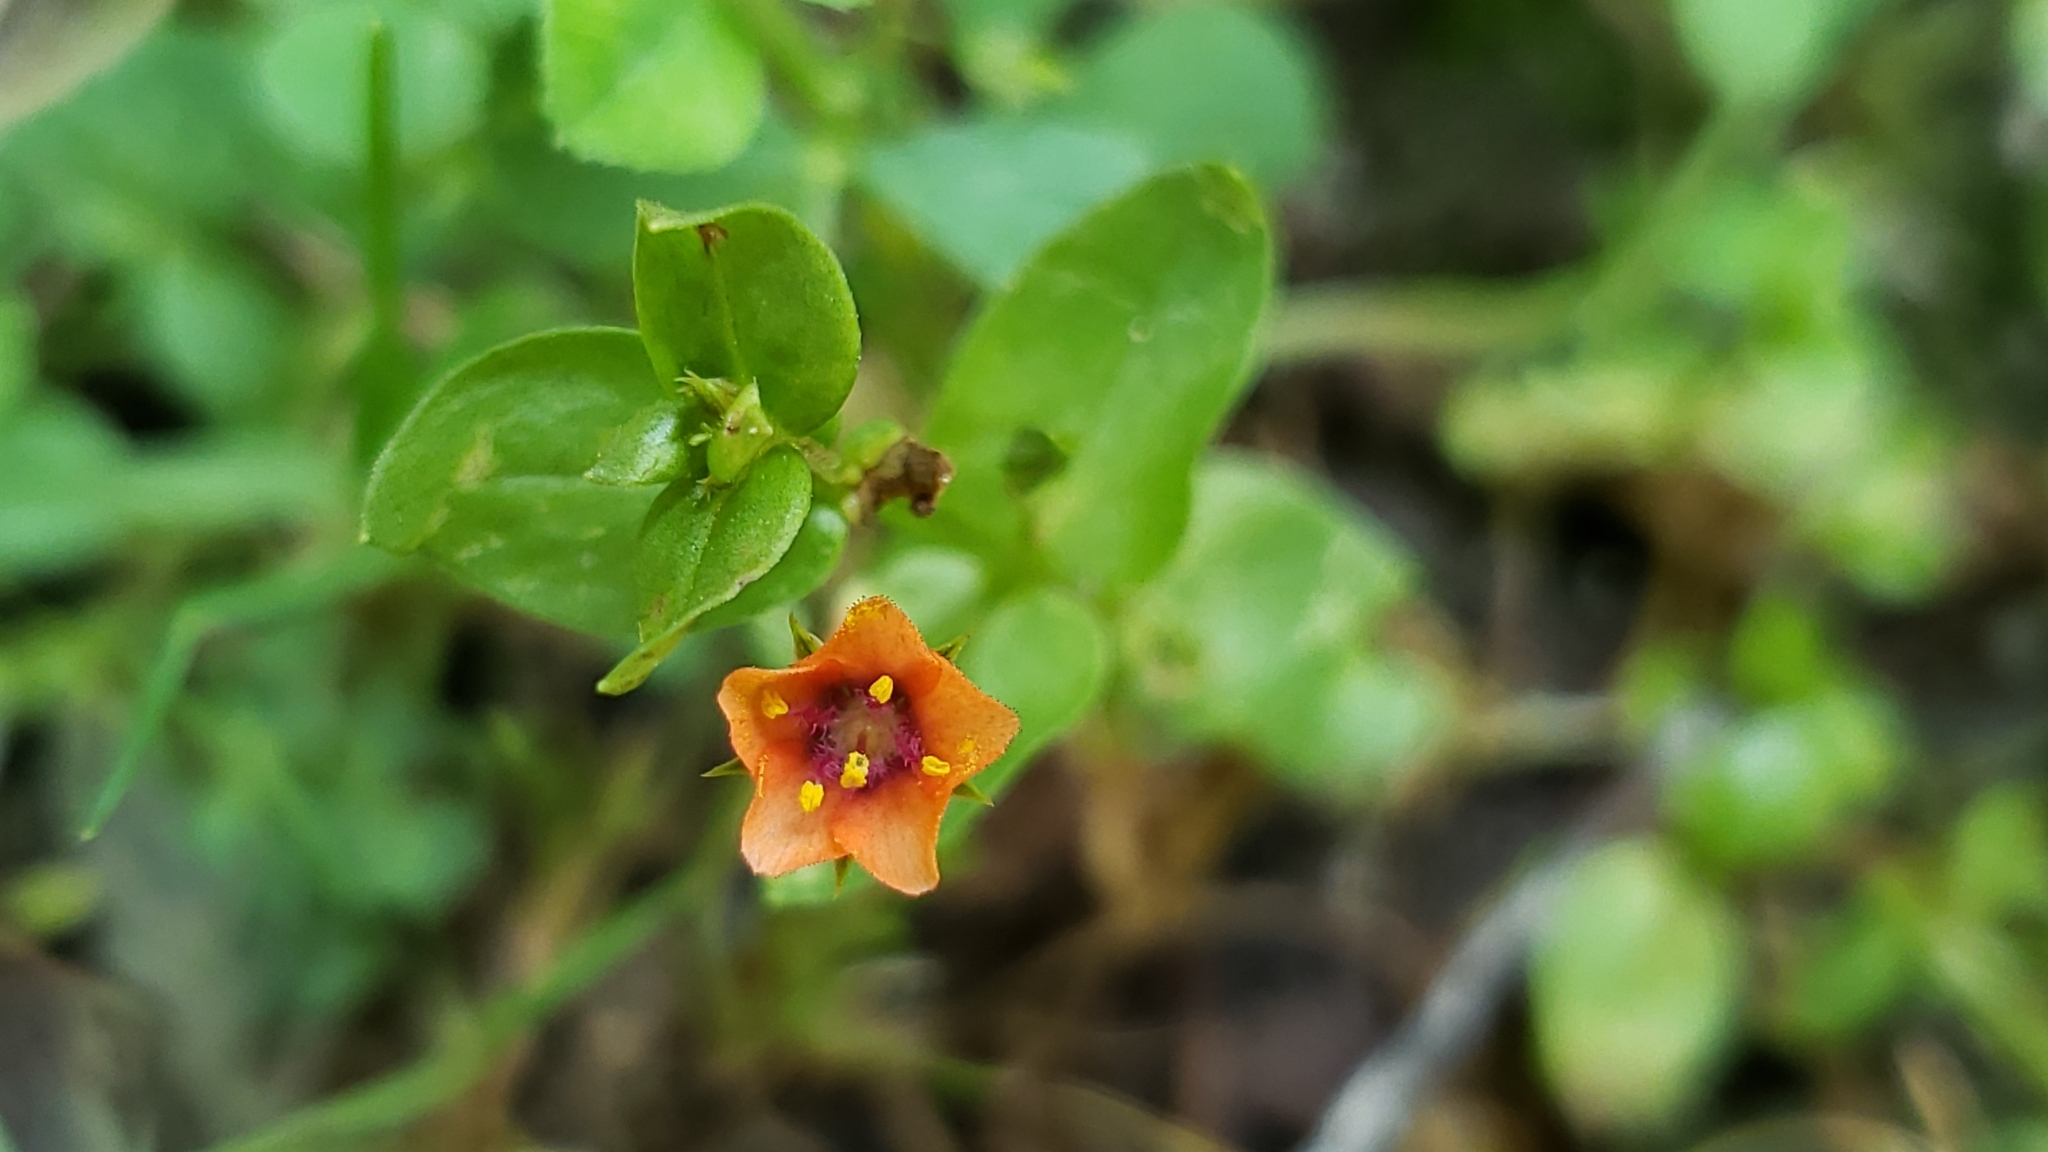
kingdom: Plantae
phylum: Tracheophyta
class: Magnoliopsida
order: Ericales
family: Primulaceae
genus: Lysimachia
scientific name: Lysimachia arvensis
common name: Scarlet pimpernel
